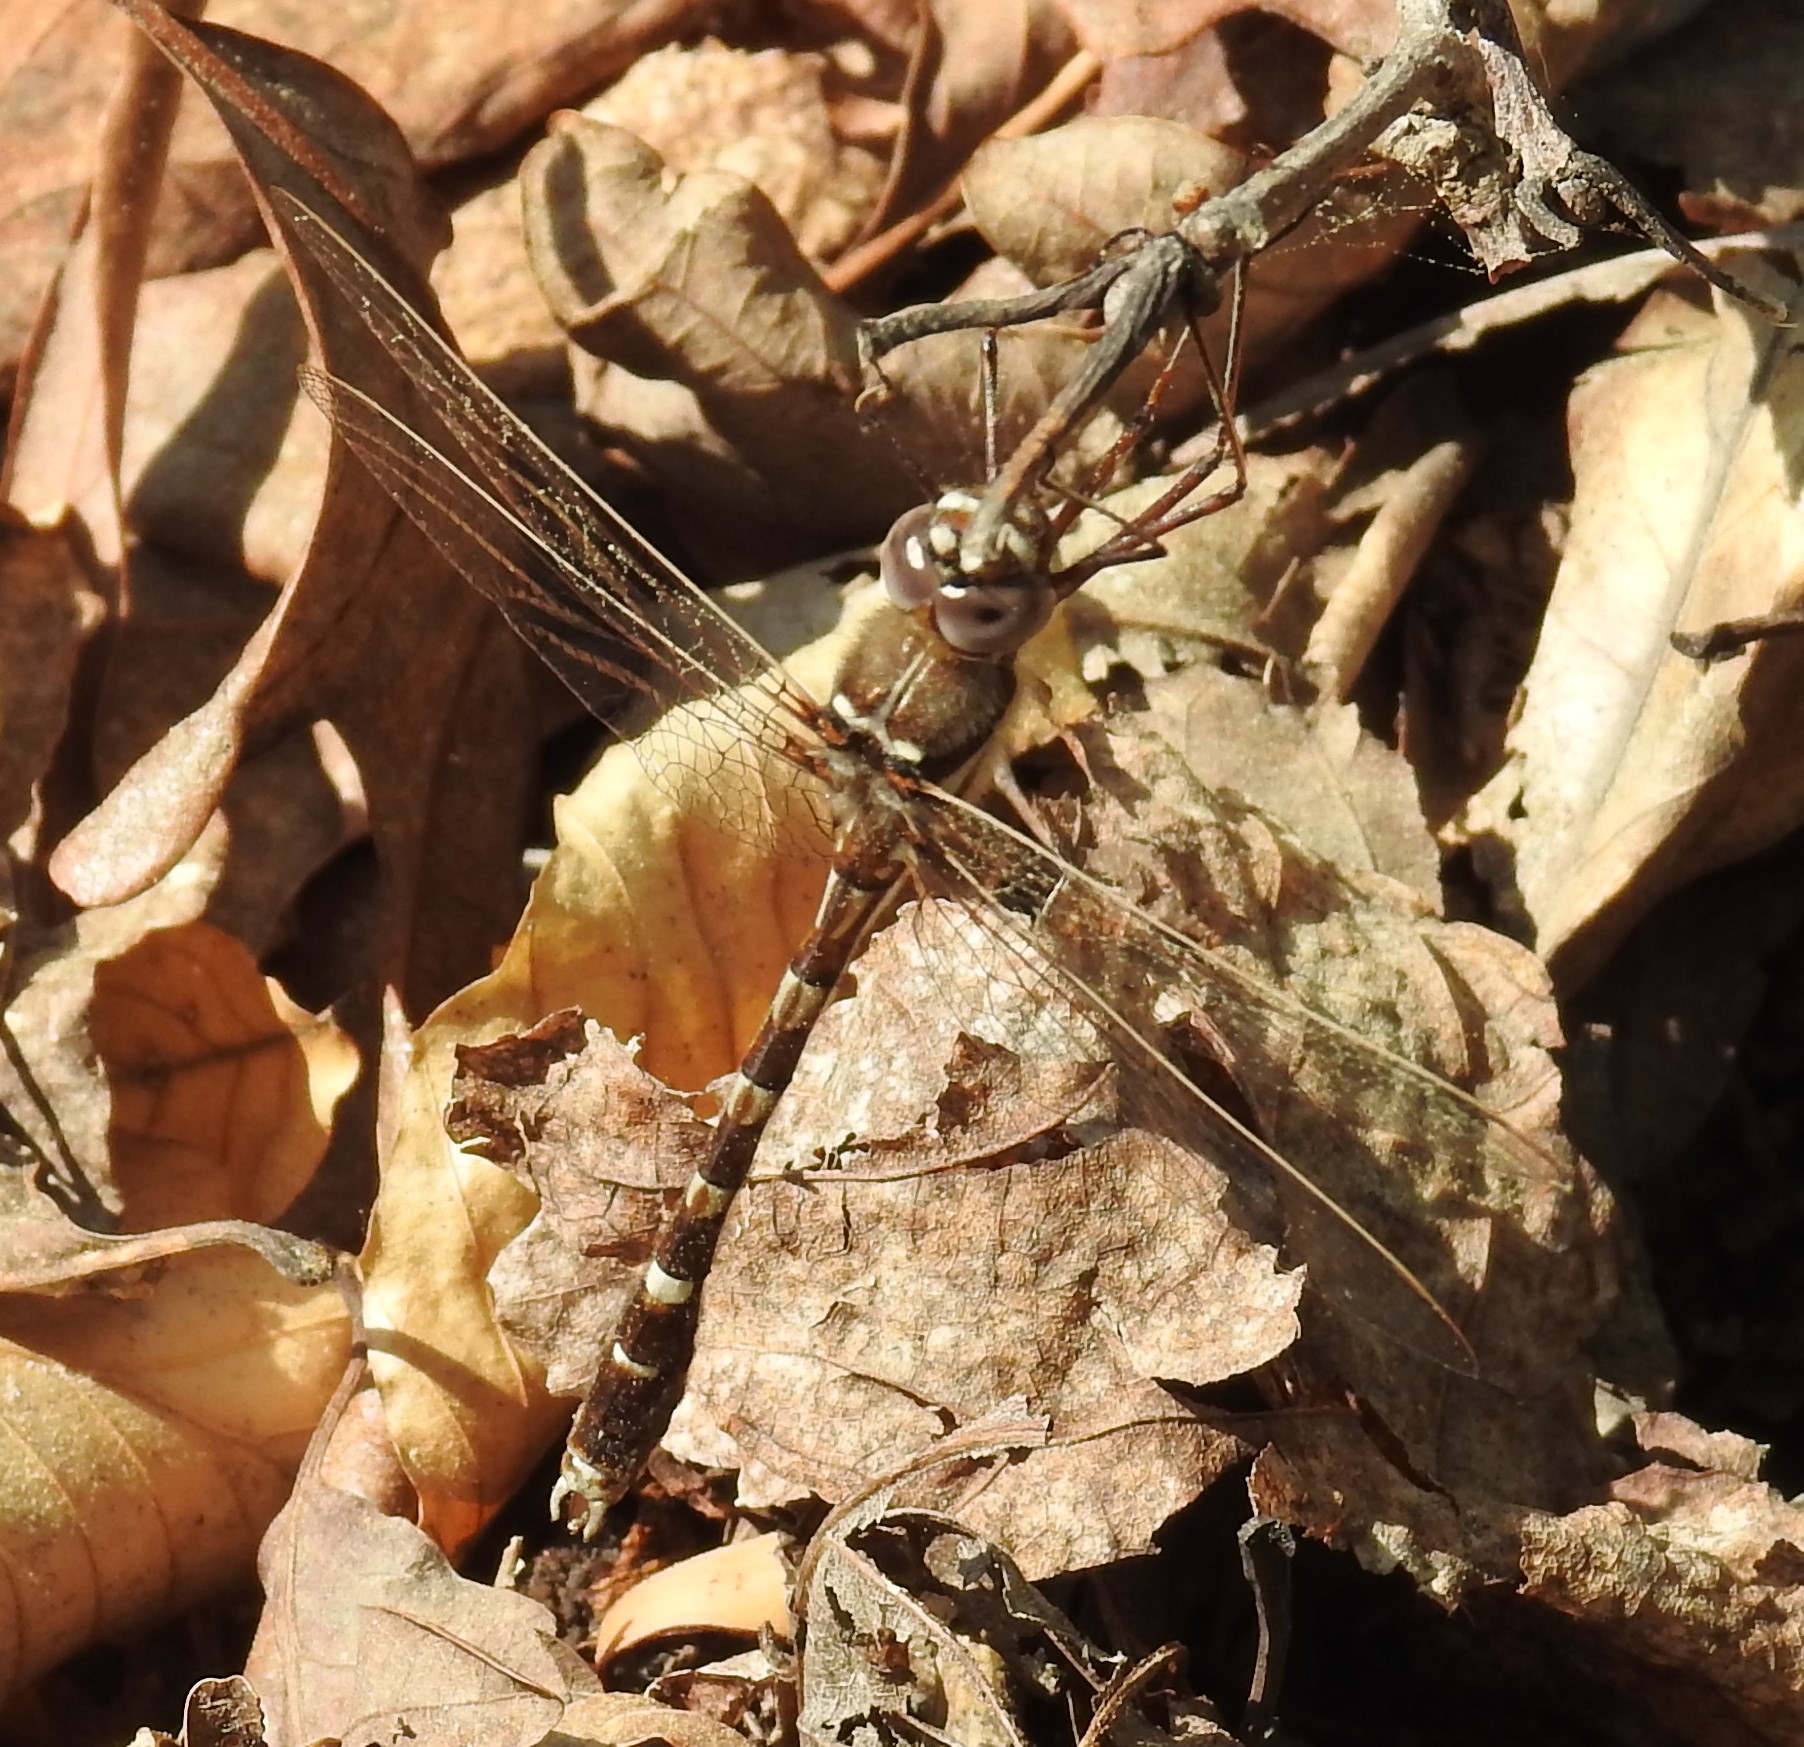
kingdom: Animalia
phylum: Arthropoda
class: Insecta
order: Odonata
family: Macromiidae
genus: Didymops
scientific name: Didymops transversa
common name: Stream cruiser
